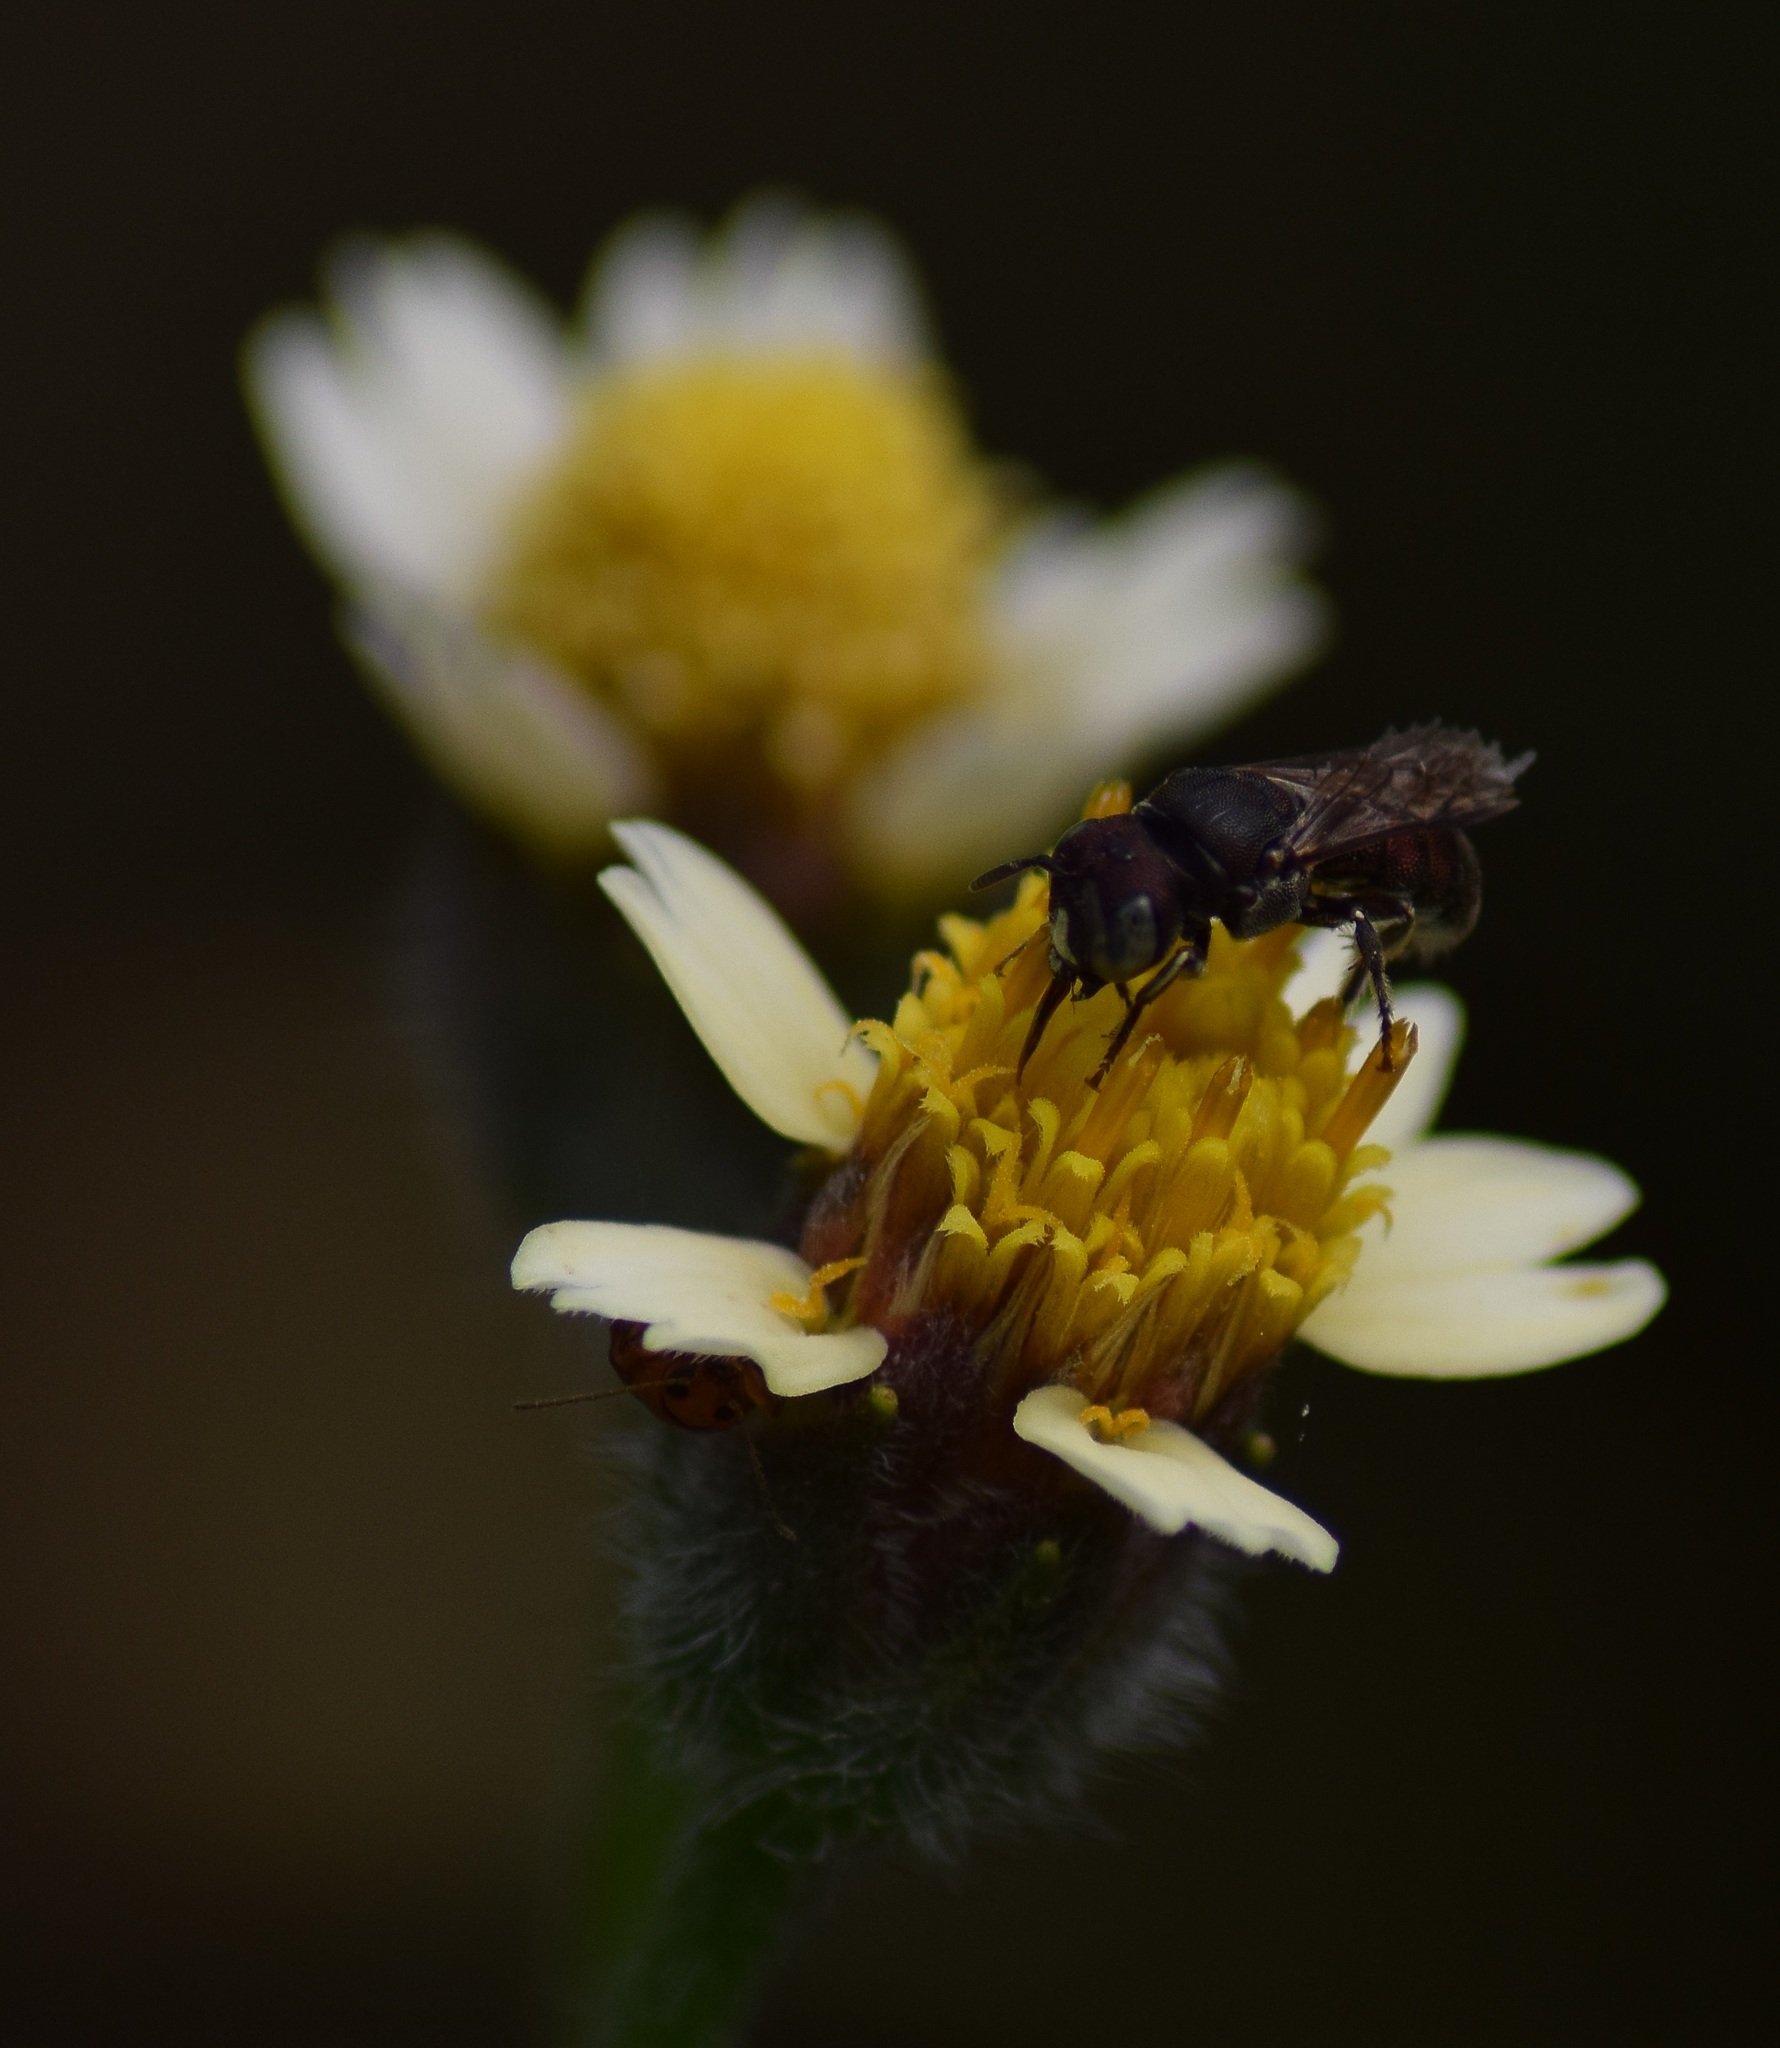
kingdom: Animalia
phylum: Arthropoda
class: Insecta
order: Hymenoptera
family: Apidae
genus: Ceratina
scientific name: Ceratina waini
